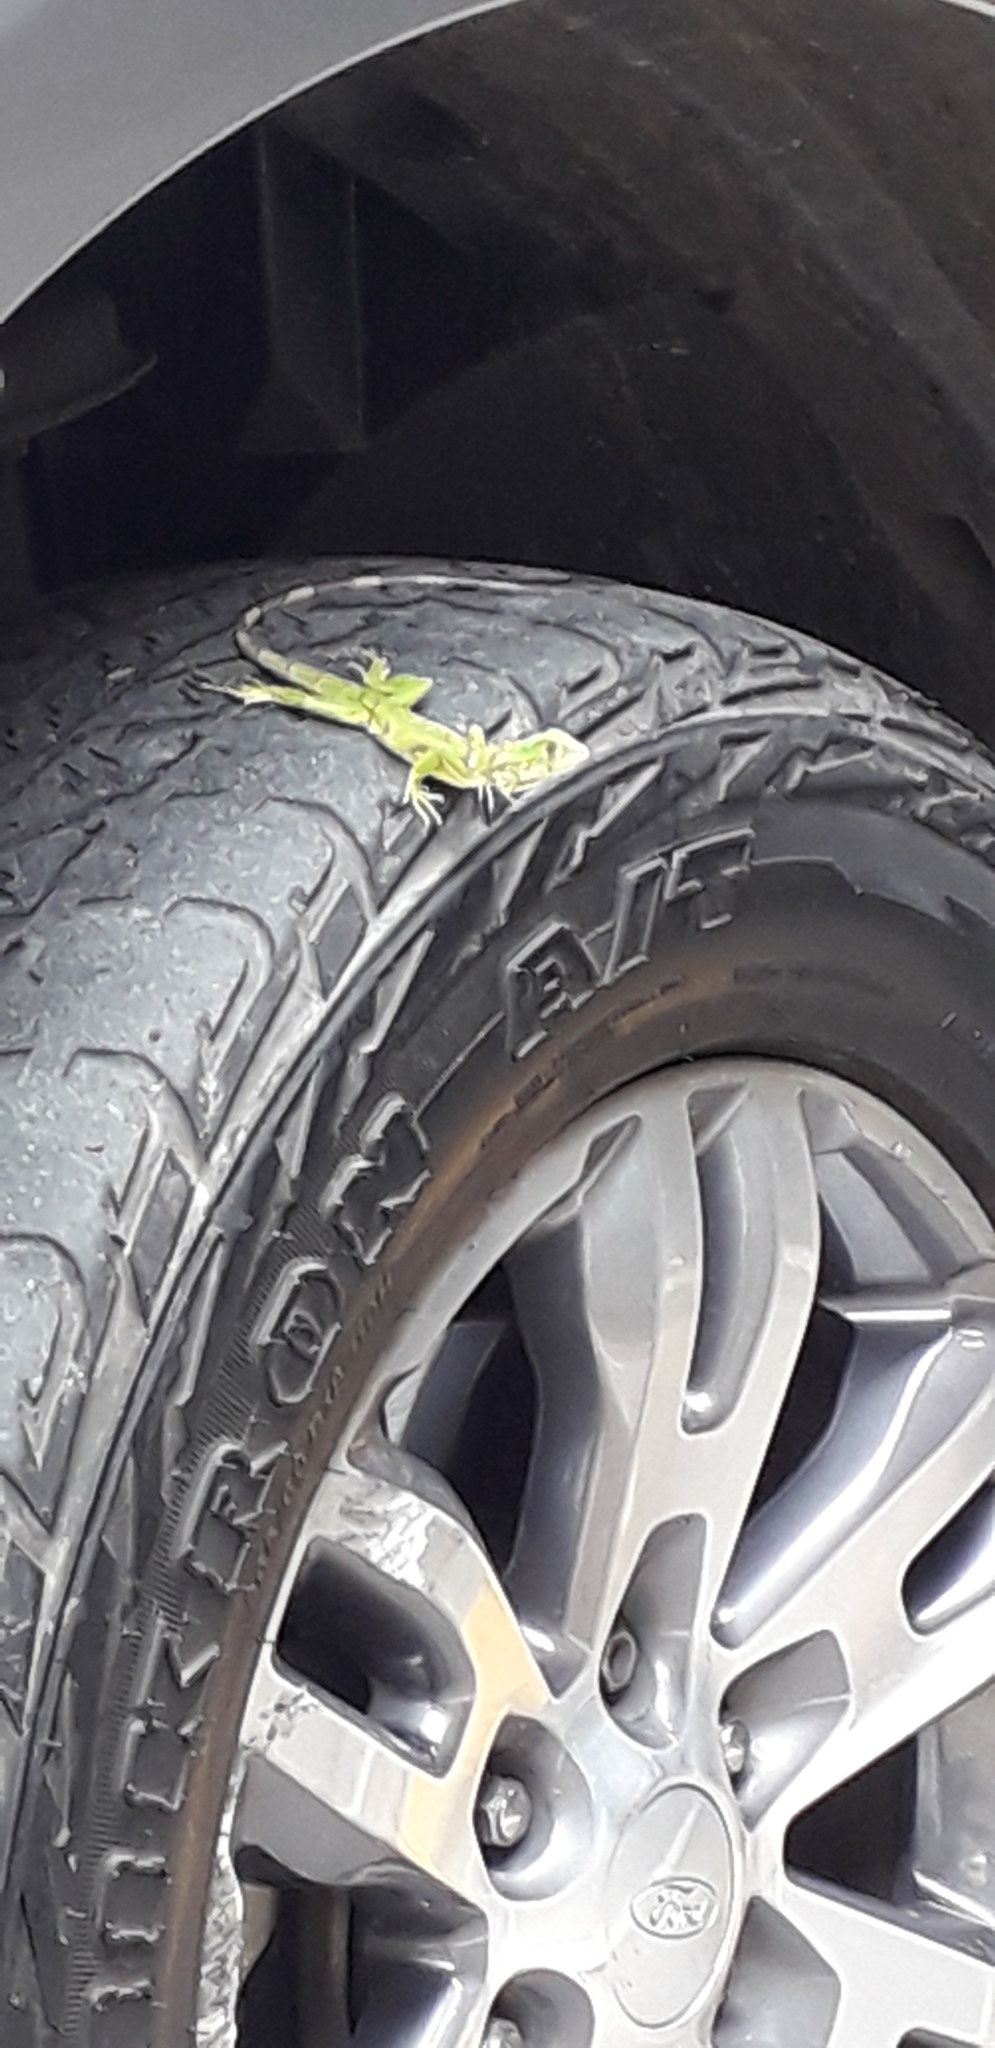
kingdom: Animalia
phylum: Chordata
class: Squamata
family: Iguanidae
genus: Iguana
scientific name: Iguana iguana
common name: Green iguana
